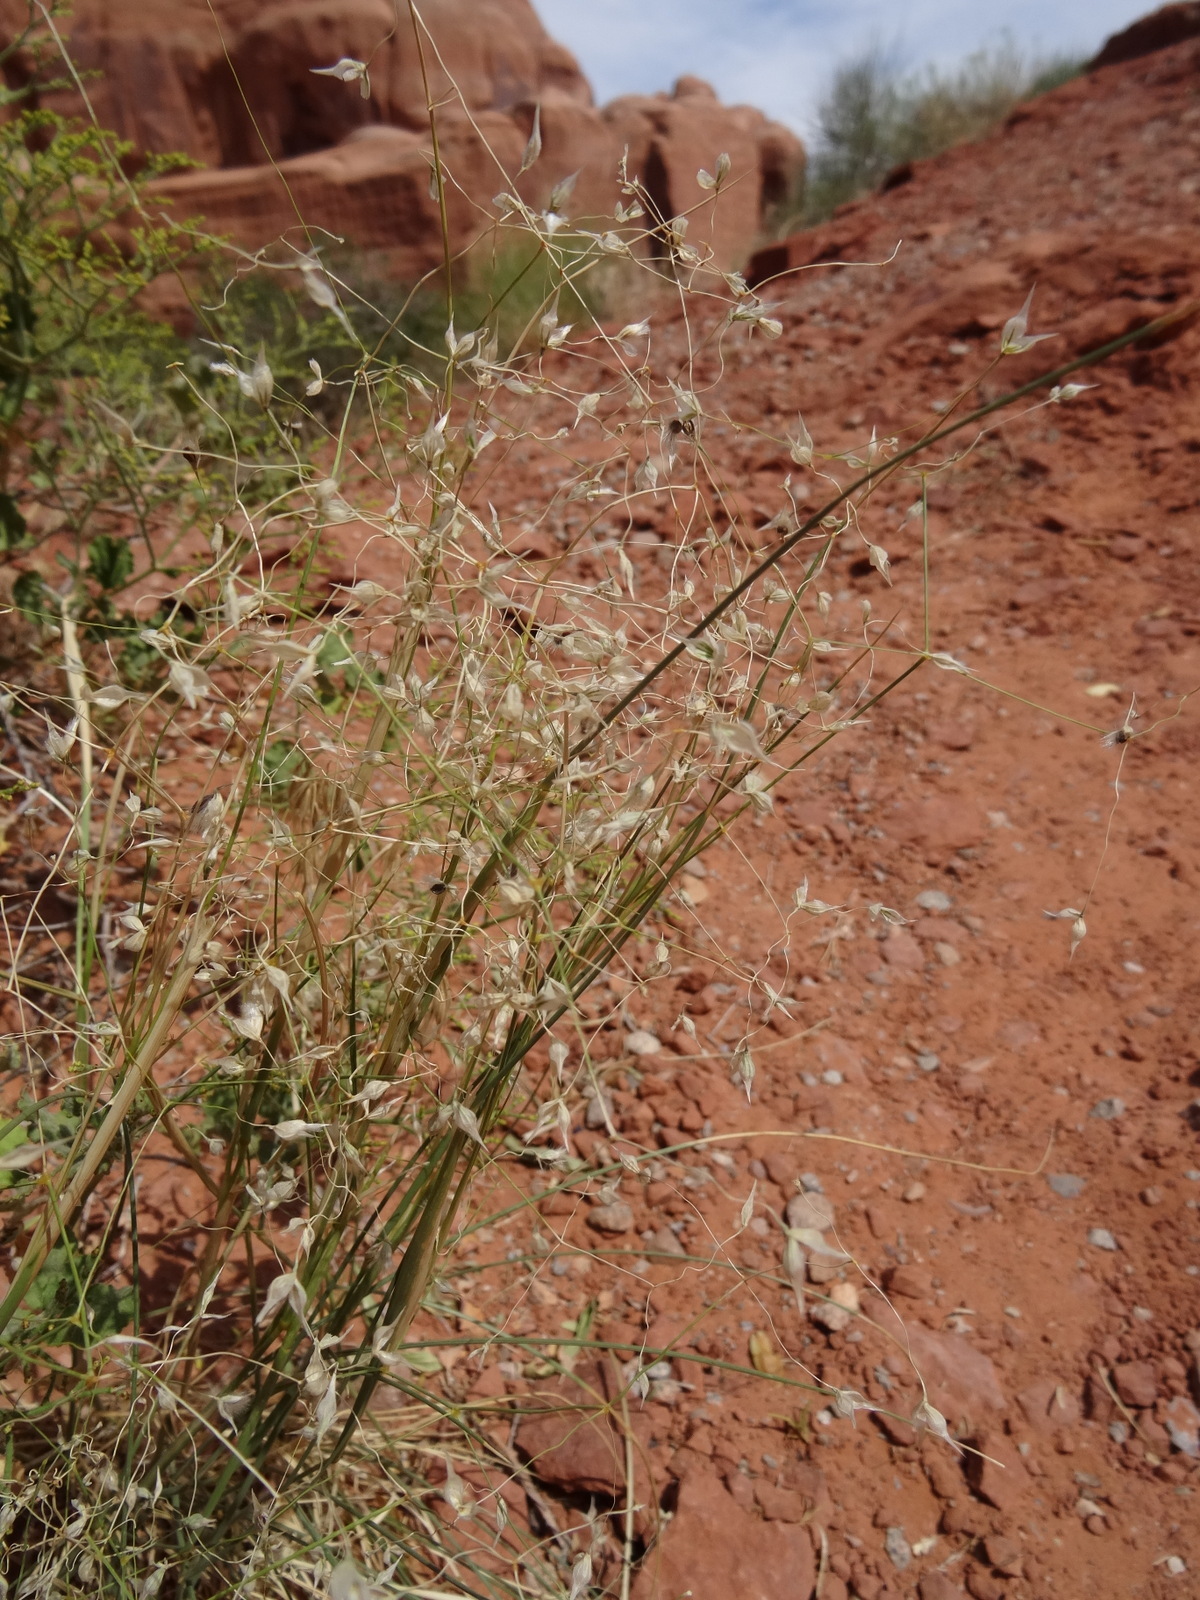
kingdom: Plantae
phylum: Tracheophyta
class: Liliopsida
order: Poales
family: Poaceae
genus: Eriocoma
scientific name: Eriocoma hymenoides
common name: Indian mountain ricegrass
